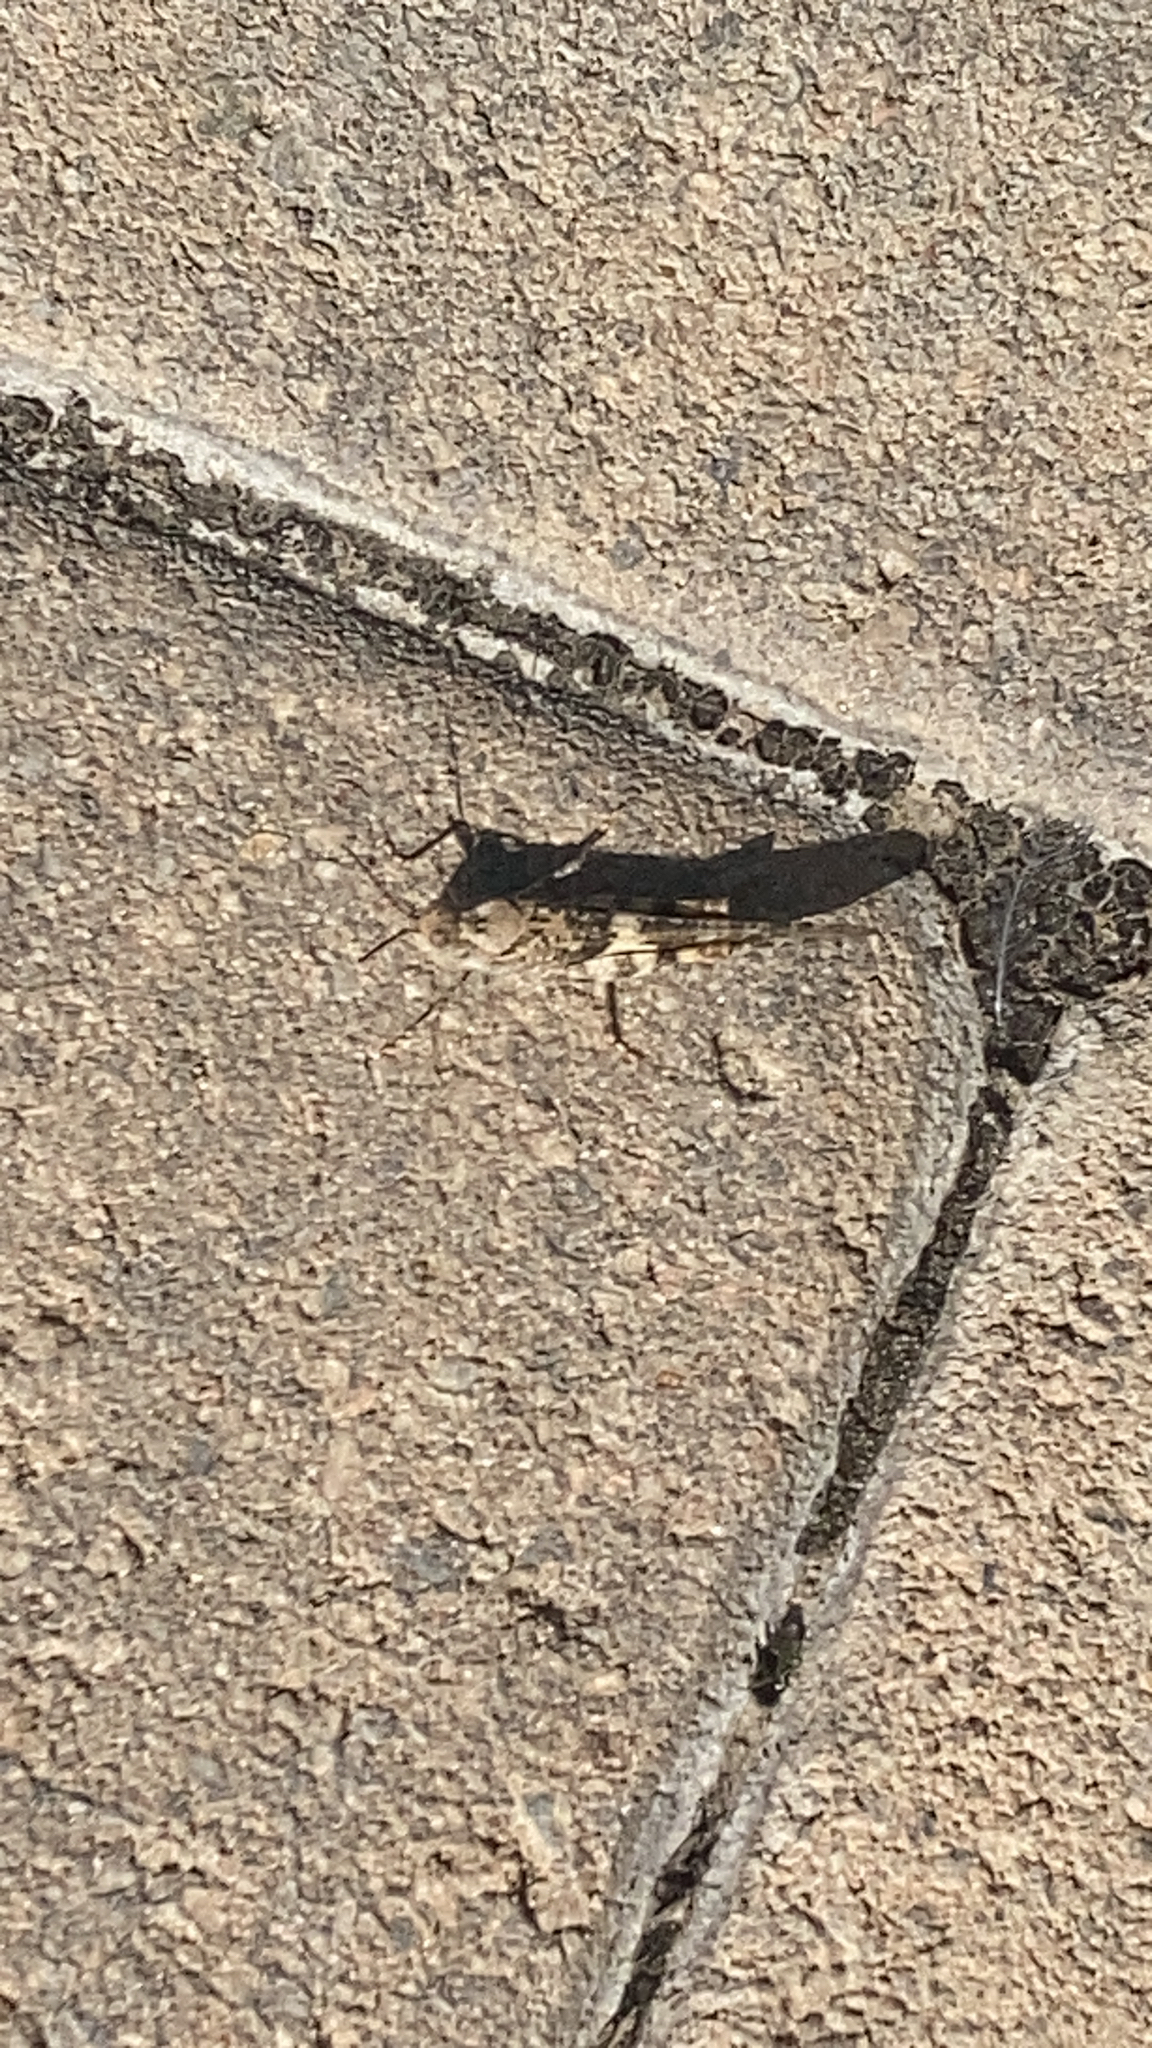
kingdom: Animalia
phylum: Arthropoda
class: Insecta
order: Orthoptera
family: Acrididae
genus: Trimerotropis
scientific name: Trimerotropis pallidipennis
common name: Pallid-winged grasshopper
